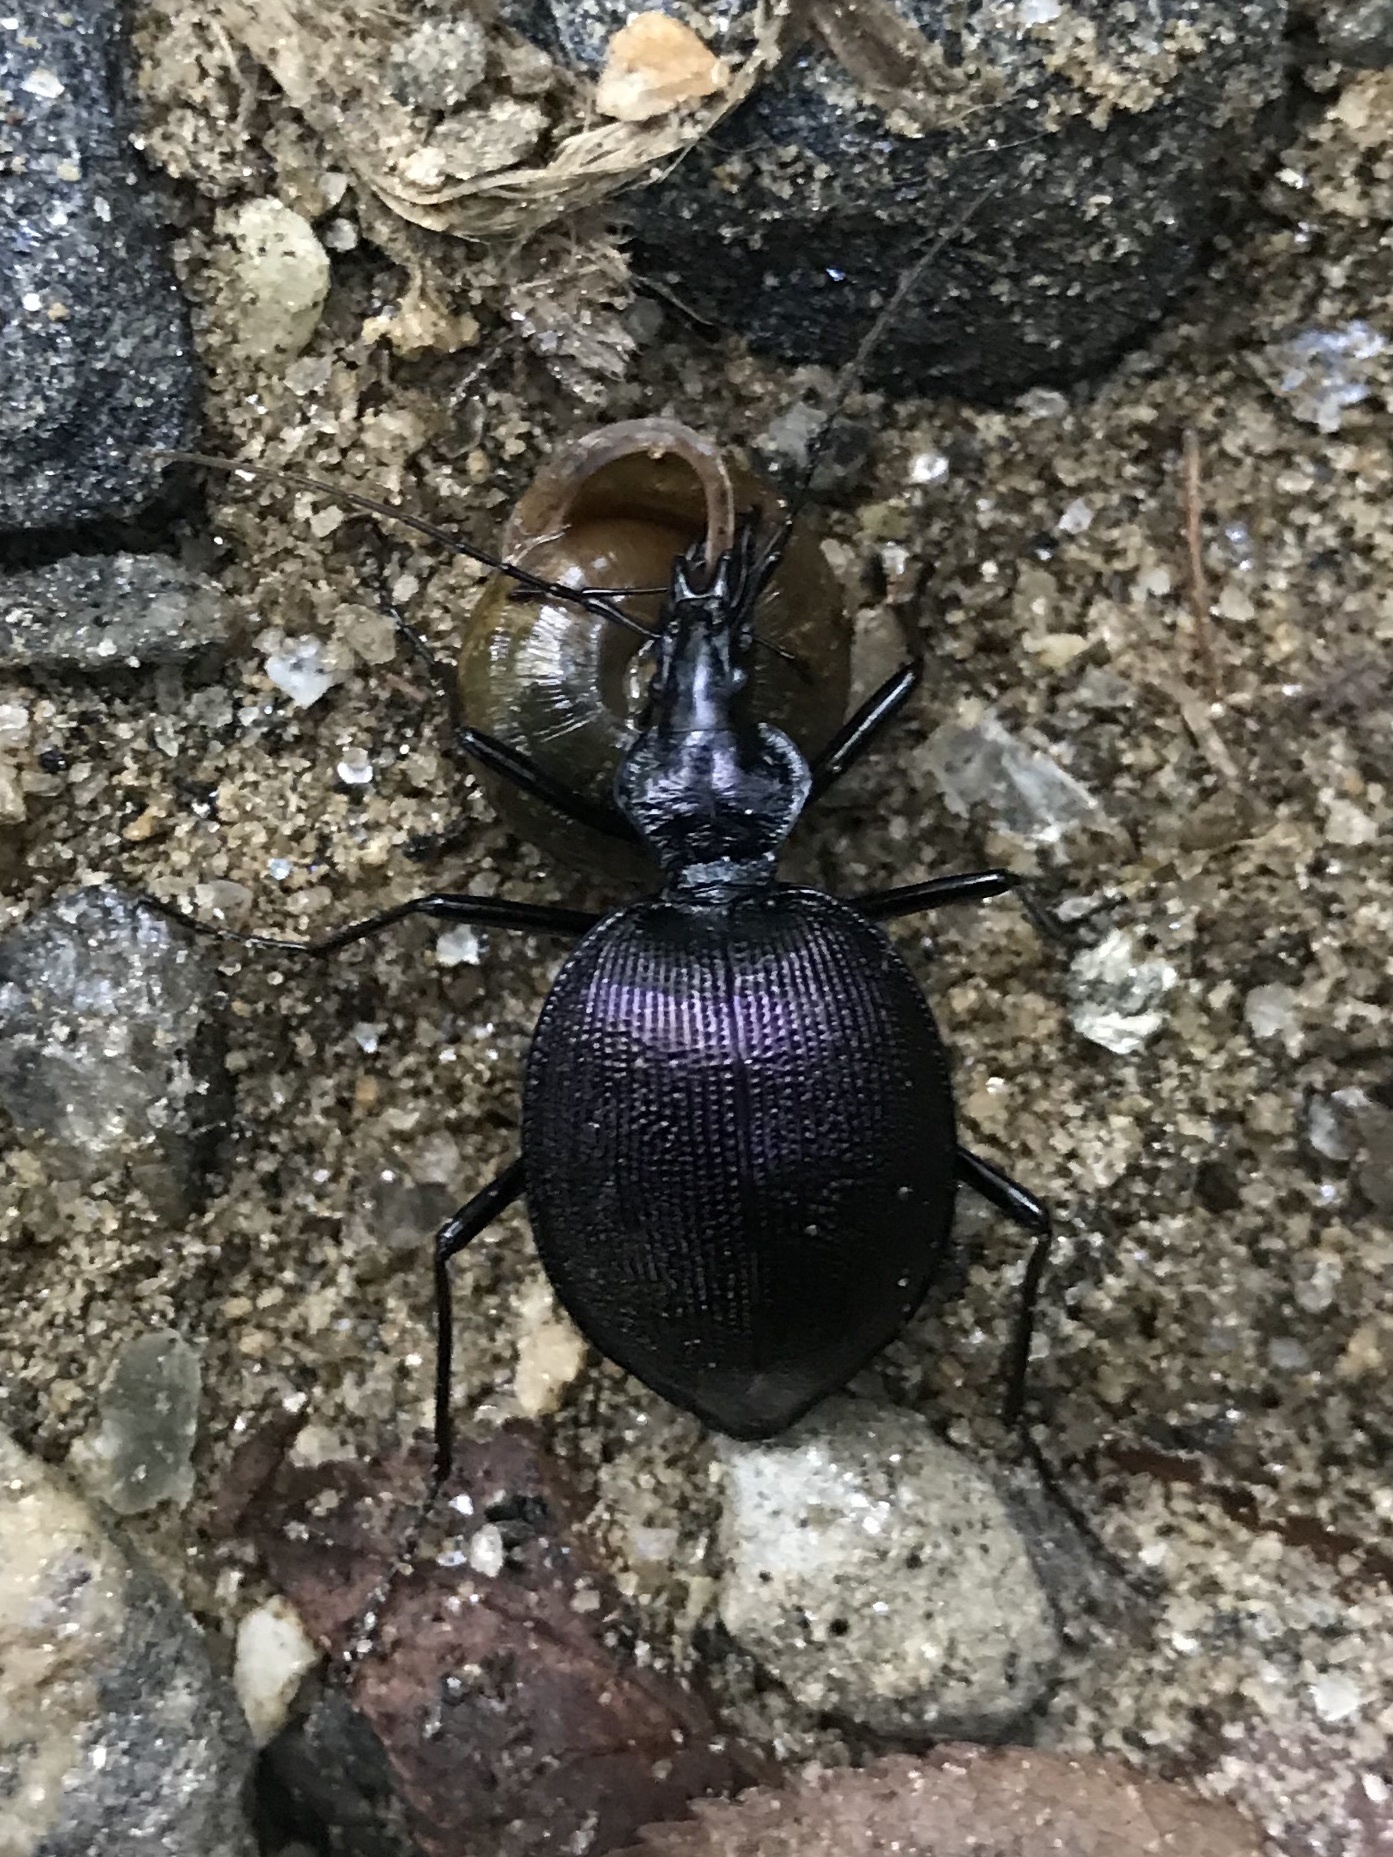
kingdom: Animalia
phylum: Arthropoda
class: Insecta
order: Coleoptera
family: Carabidae
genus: Scaphinotus
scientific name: Scaphinotus guyotii
